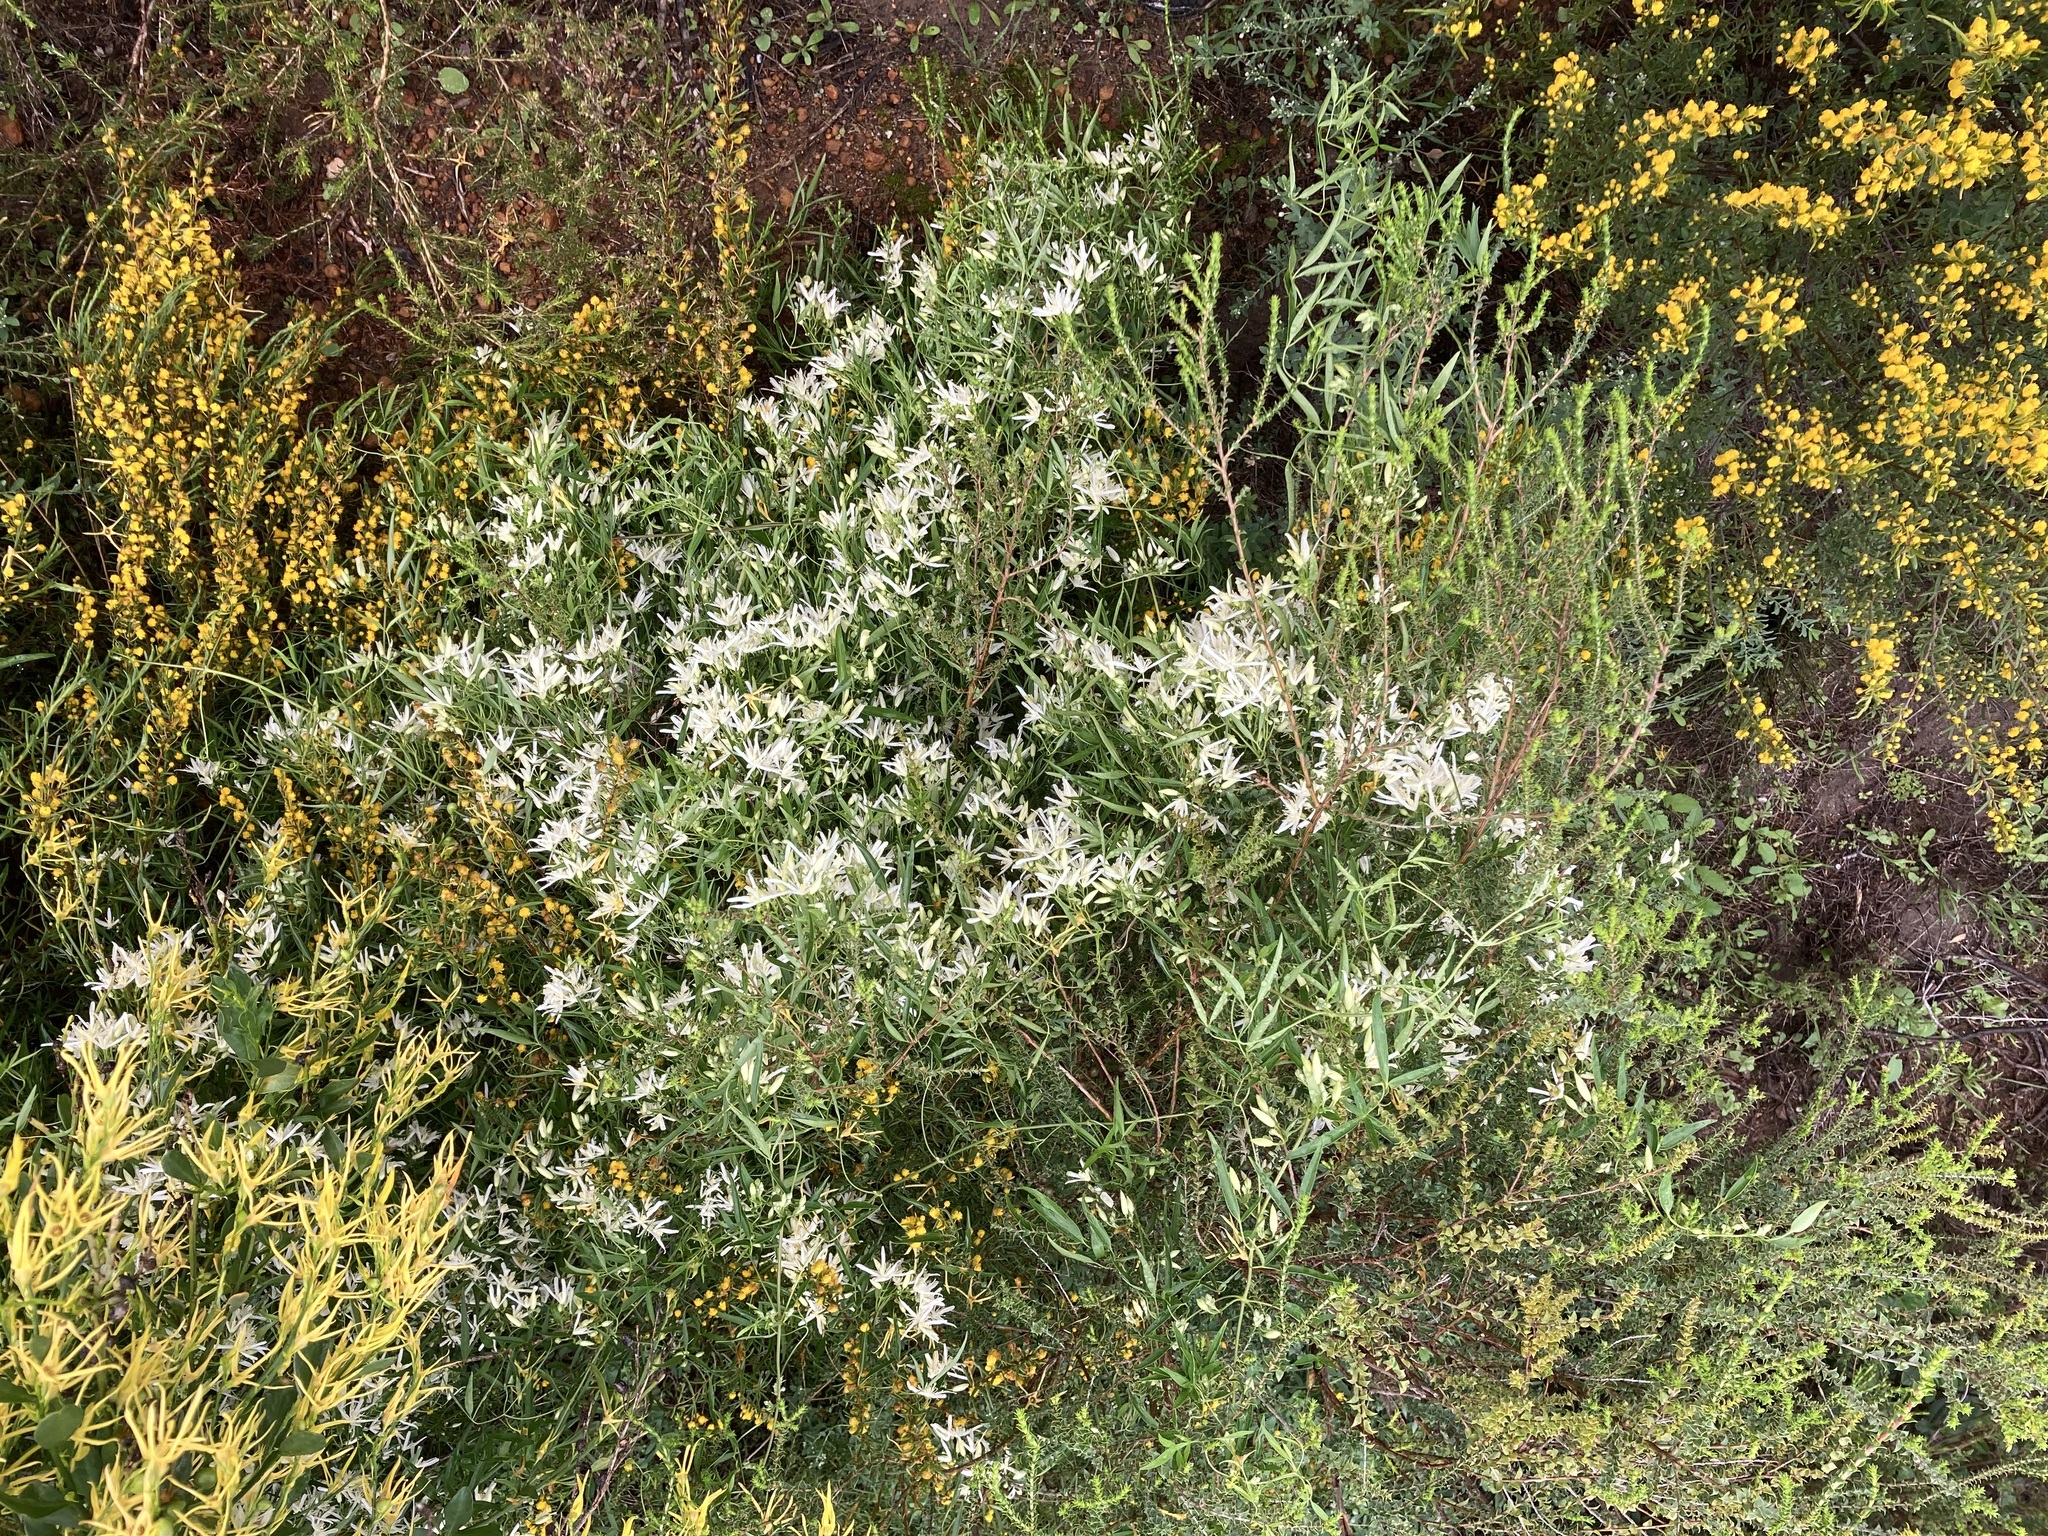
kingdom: Plantae
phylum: Tracheophyta
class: Magnoliopsida
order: Ranunculales
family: Ranunculaceae
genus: Clematis
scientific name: Clematis linearifolia
